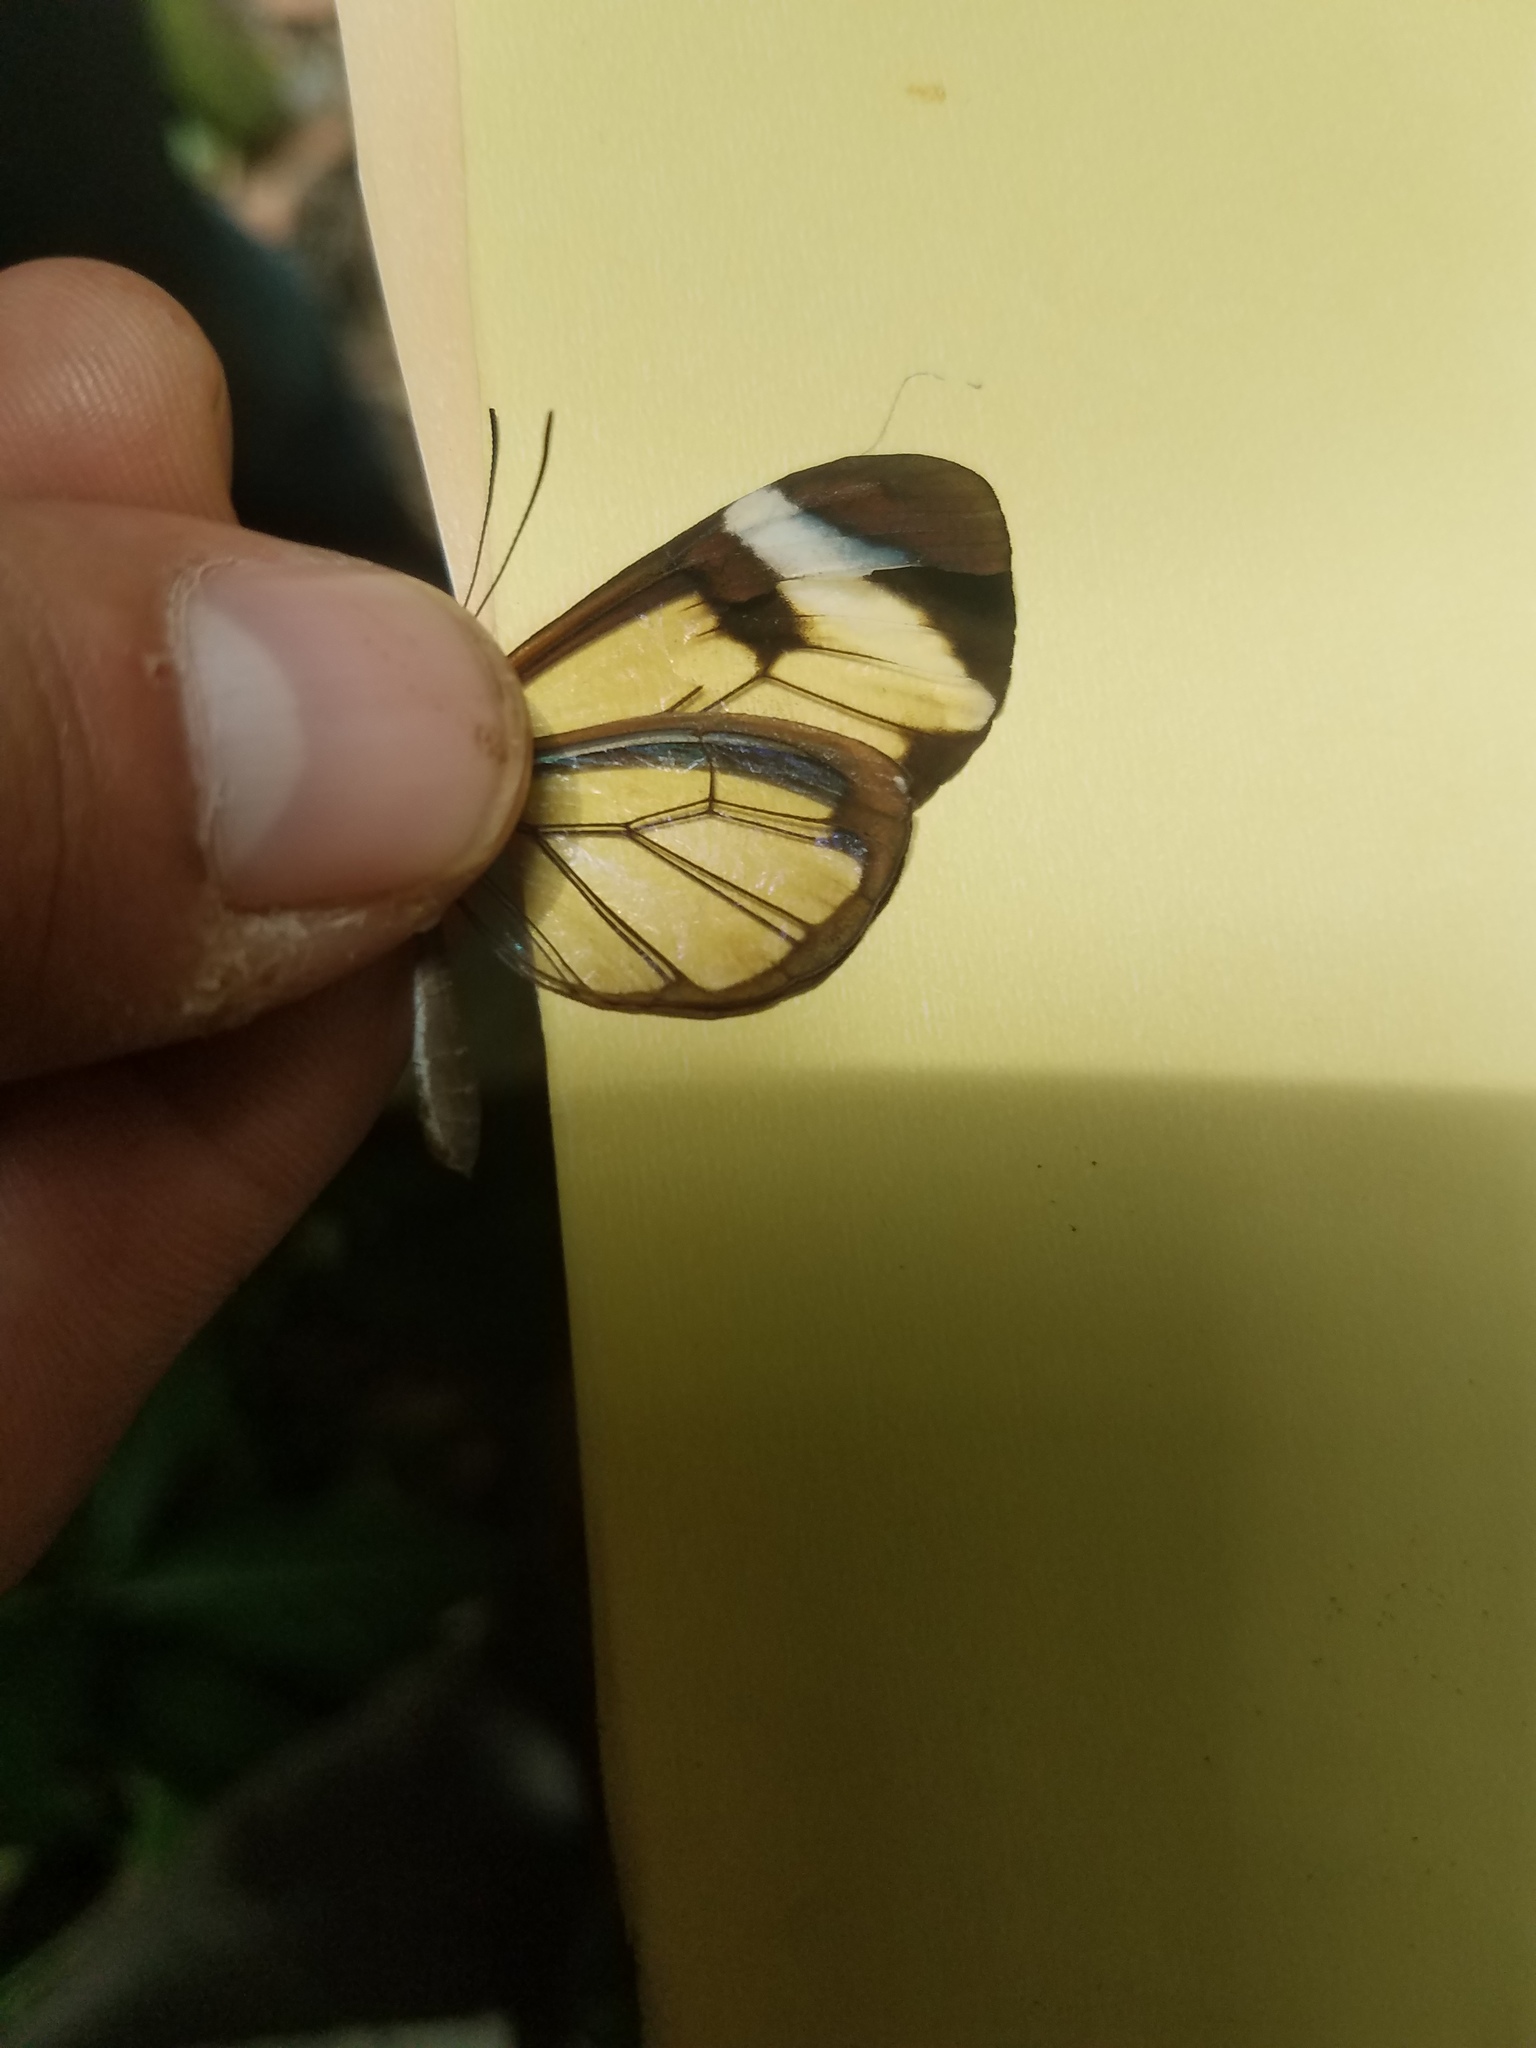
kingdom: Animalia
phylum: Arthropoda
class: Insecta
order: Lepidoptera
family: Nymphalidae
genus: Greta
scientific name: Greta morgane
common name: Thick-tipped greta
